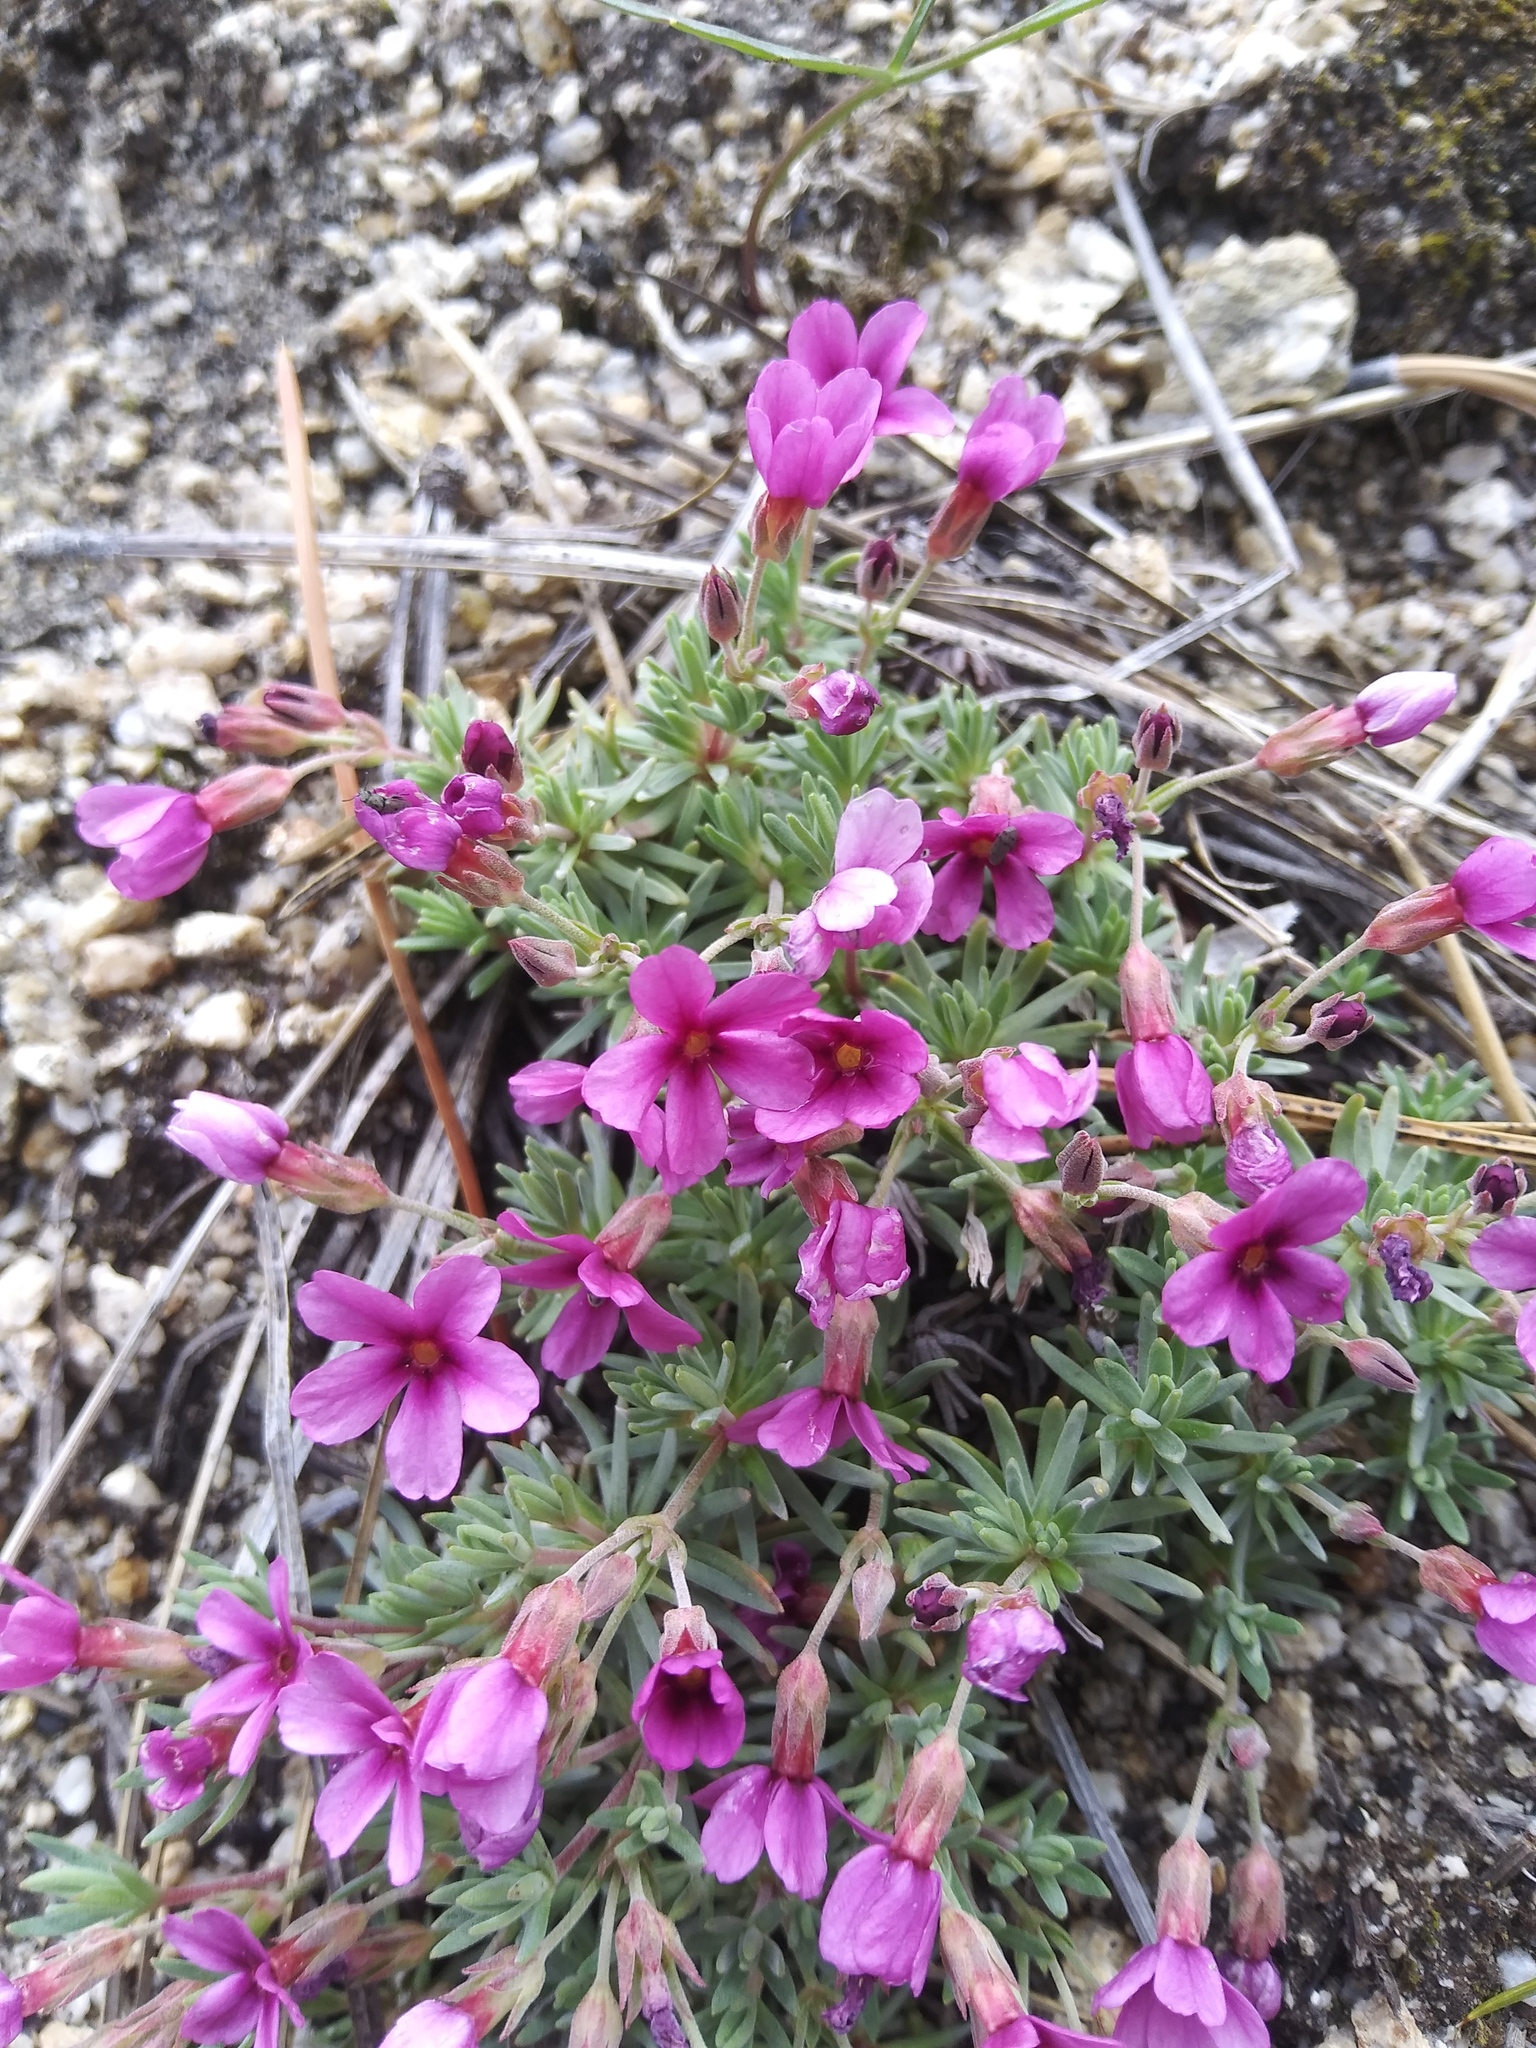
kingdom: Plantae
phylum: Tracheophyta
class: Magnoliopsida
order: Ericales
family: Primulaceae
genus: Androsace
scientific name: Androsace nivalis
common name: Snow dwarf-primrose
